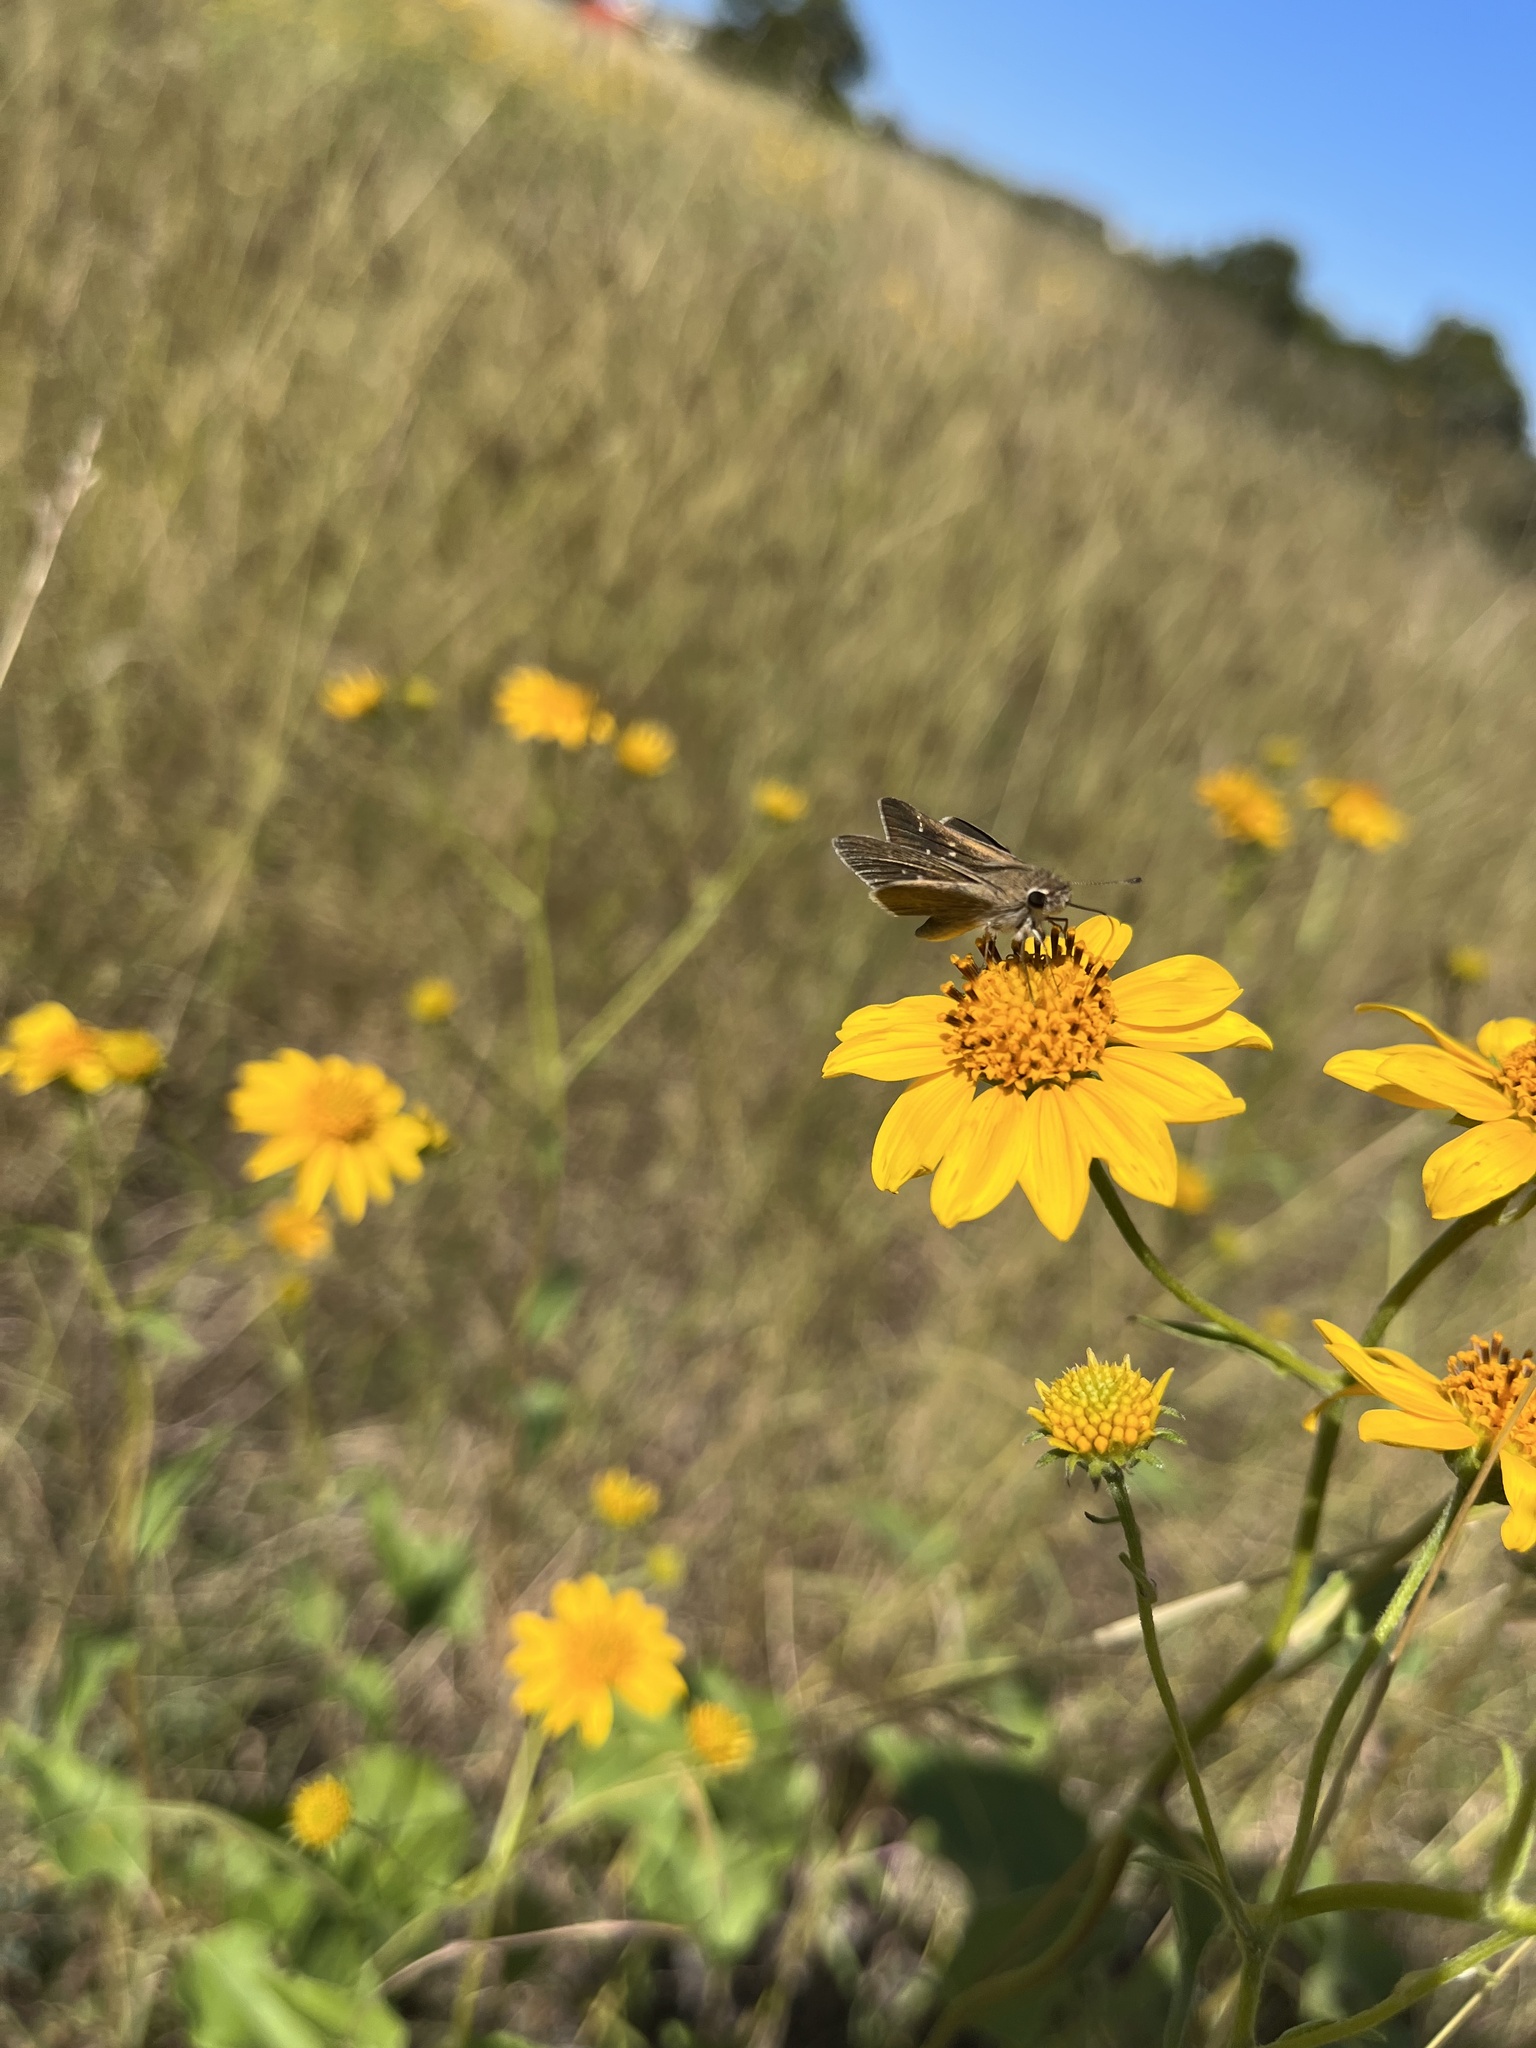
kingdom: Animalia
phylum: Arthropoda
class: Insecta
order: Lepidoptera
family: Hesperiidae
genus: Lerodea
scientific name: Lerodea eufala
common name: Eufala skipper
